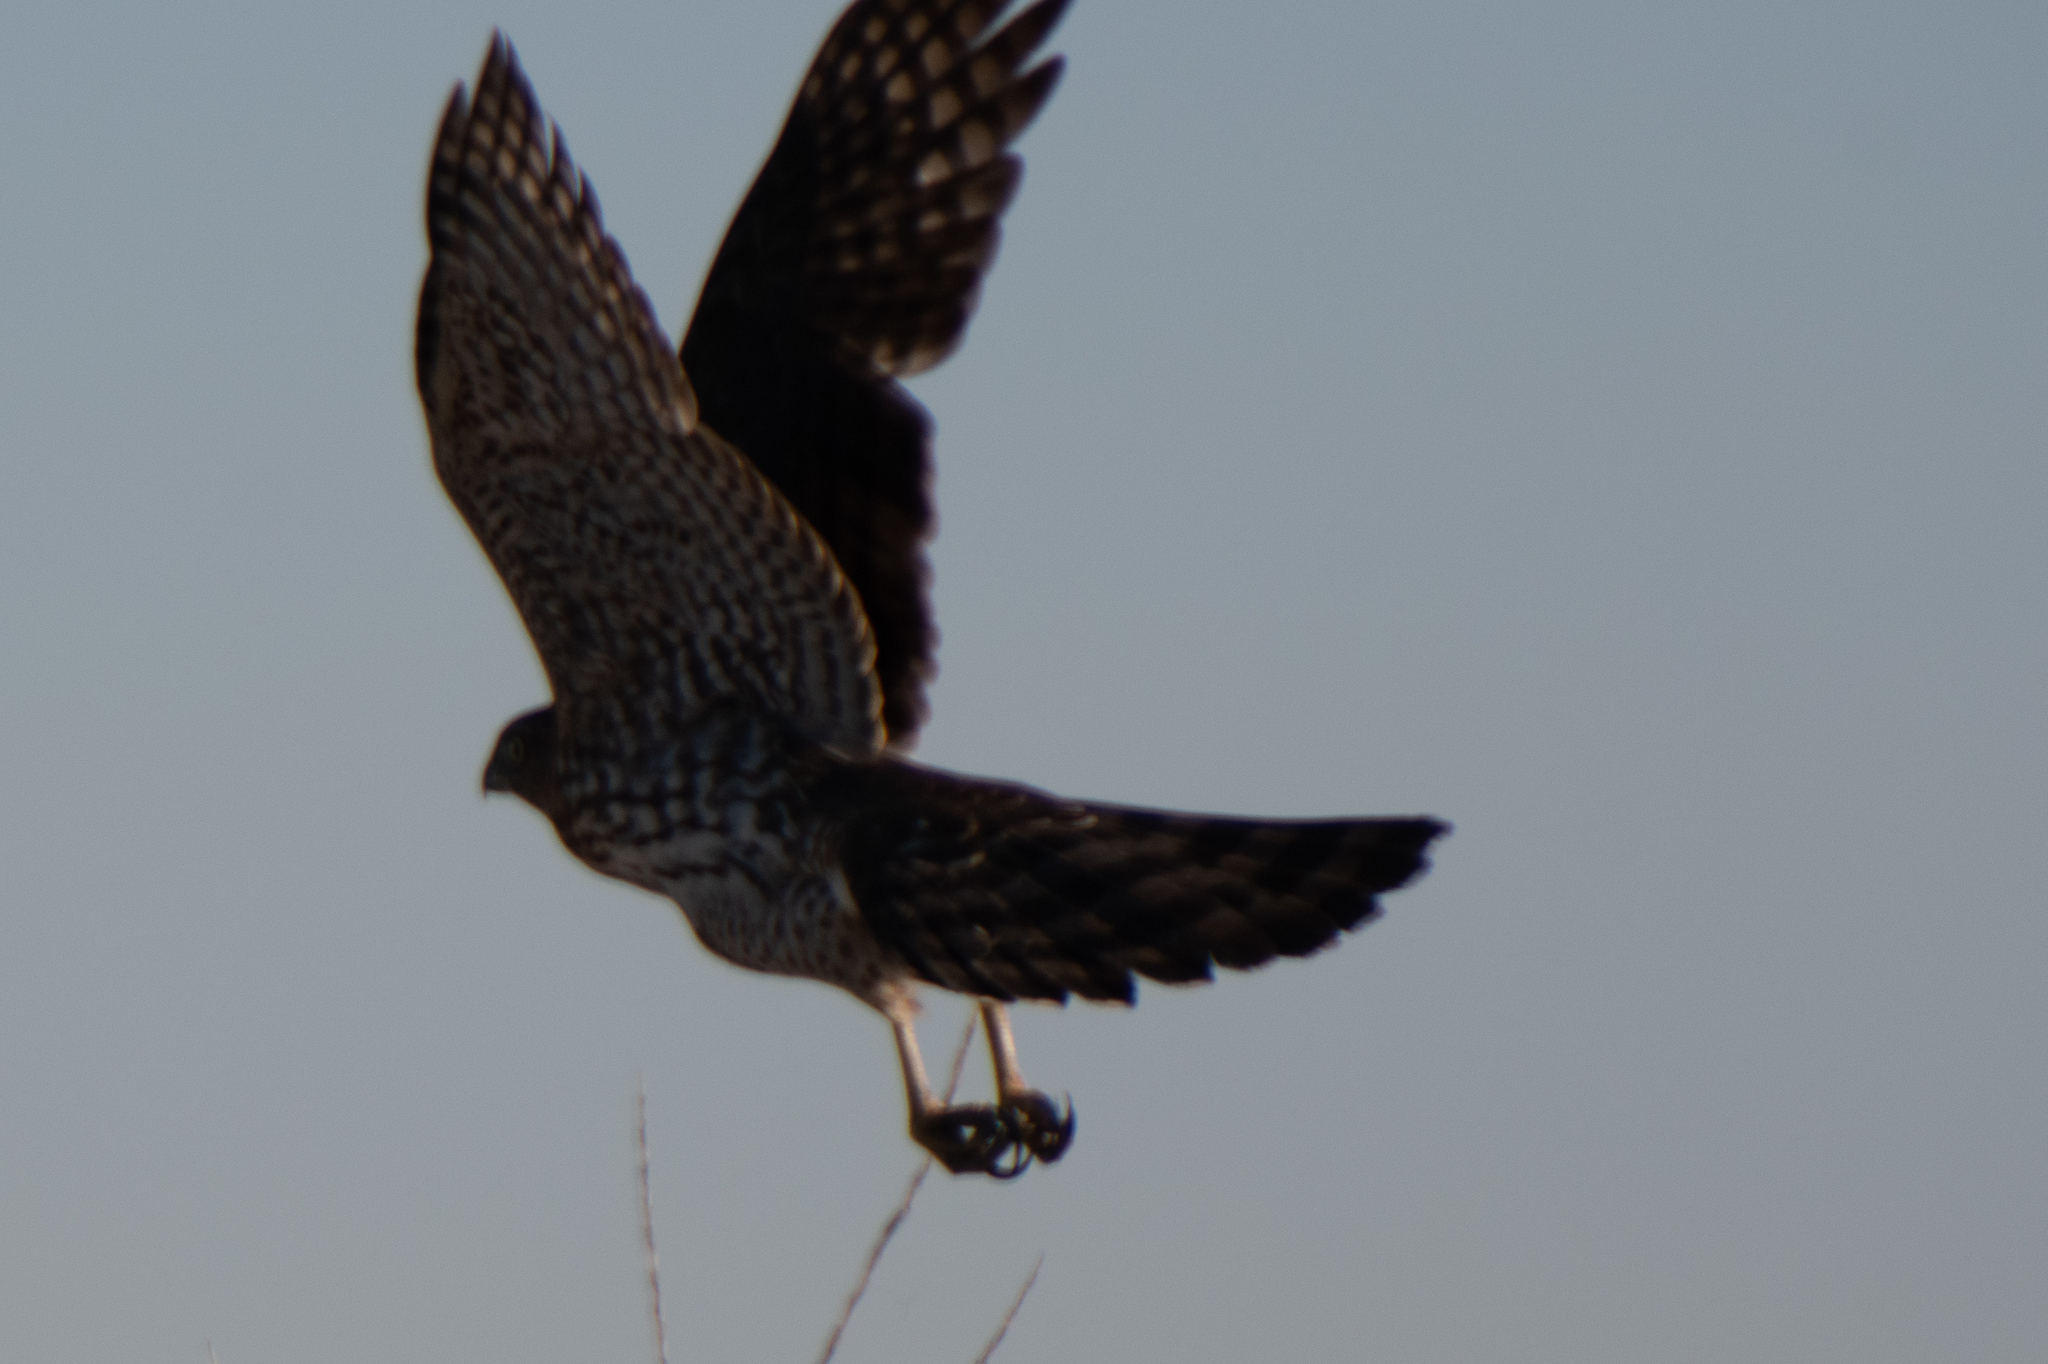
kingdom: Animalia
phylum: Chordata
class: Aves
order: Accipitriformes
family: Accipitridae
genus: Accipiter
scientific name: Accipiter cooperii
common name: Cooper's hawk
